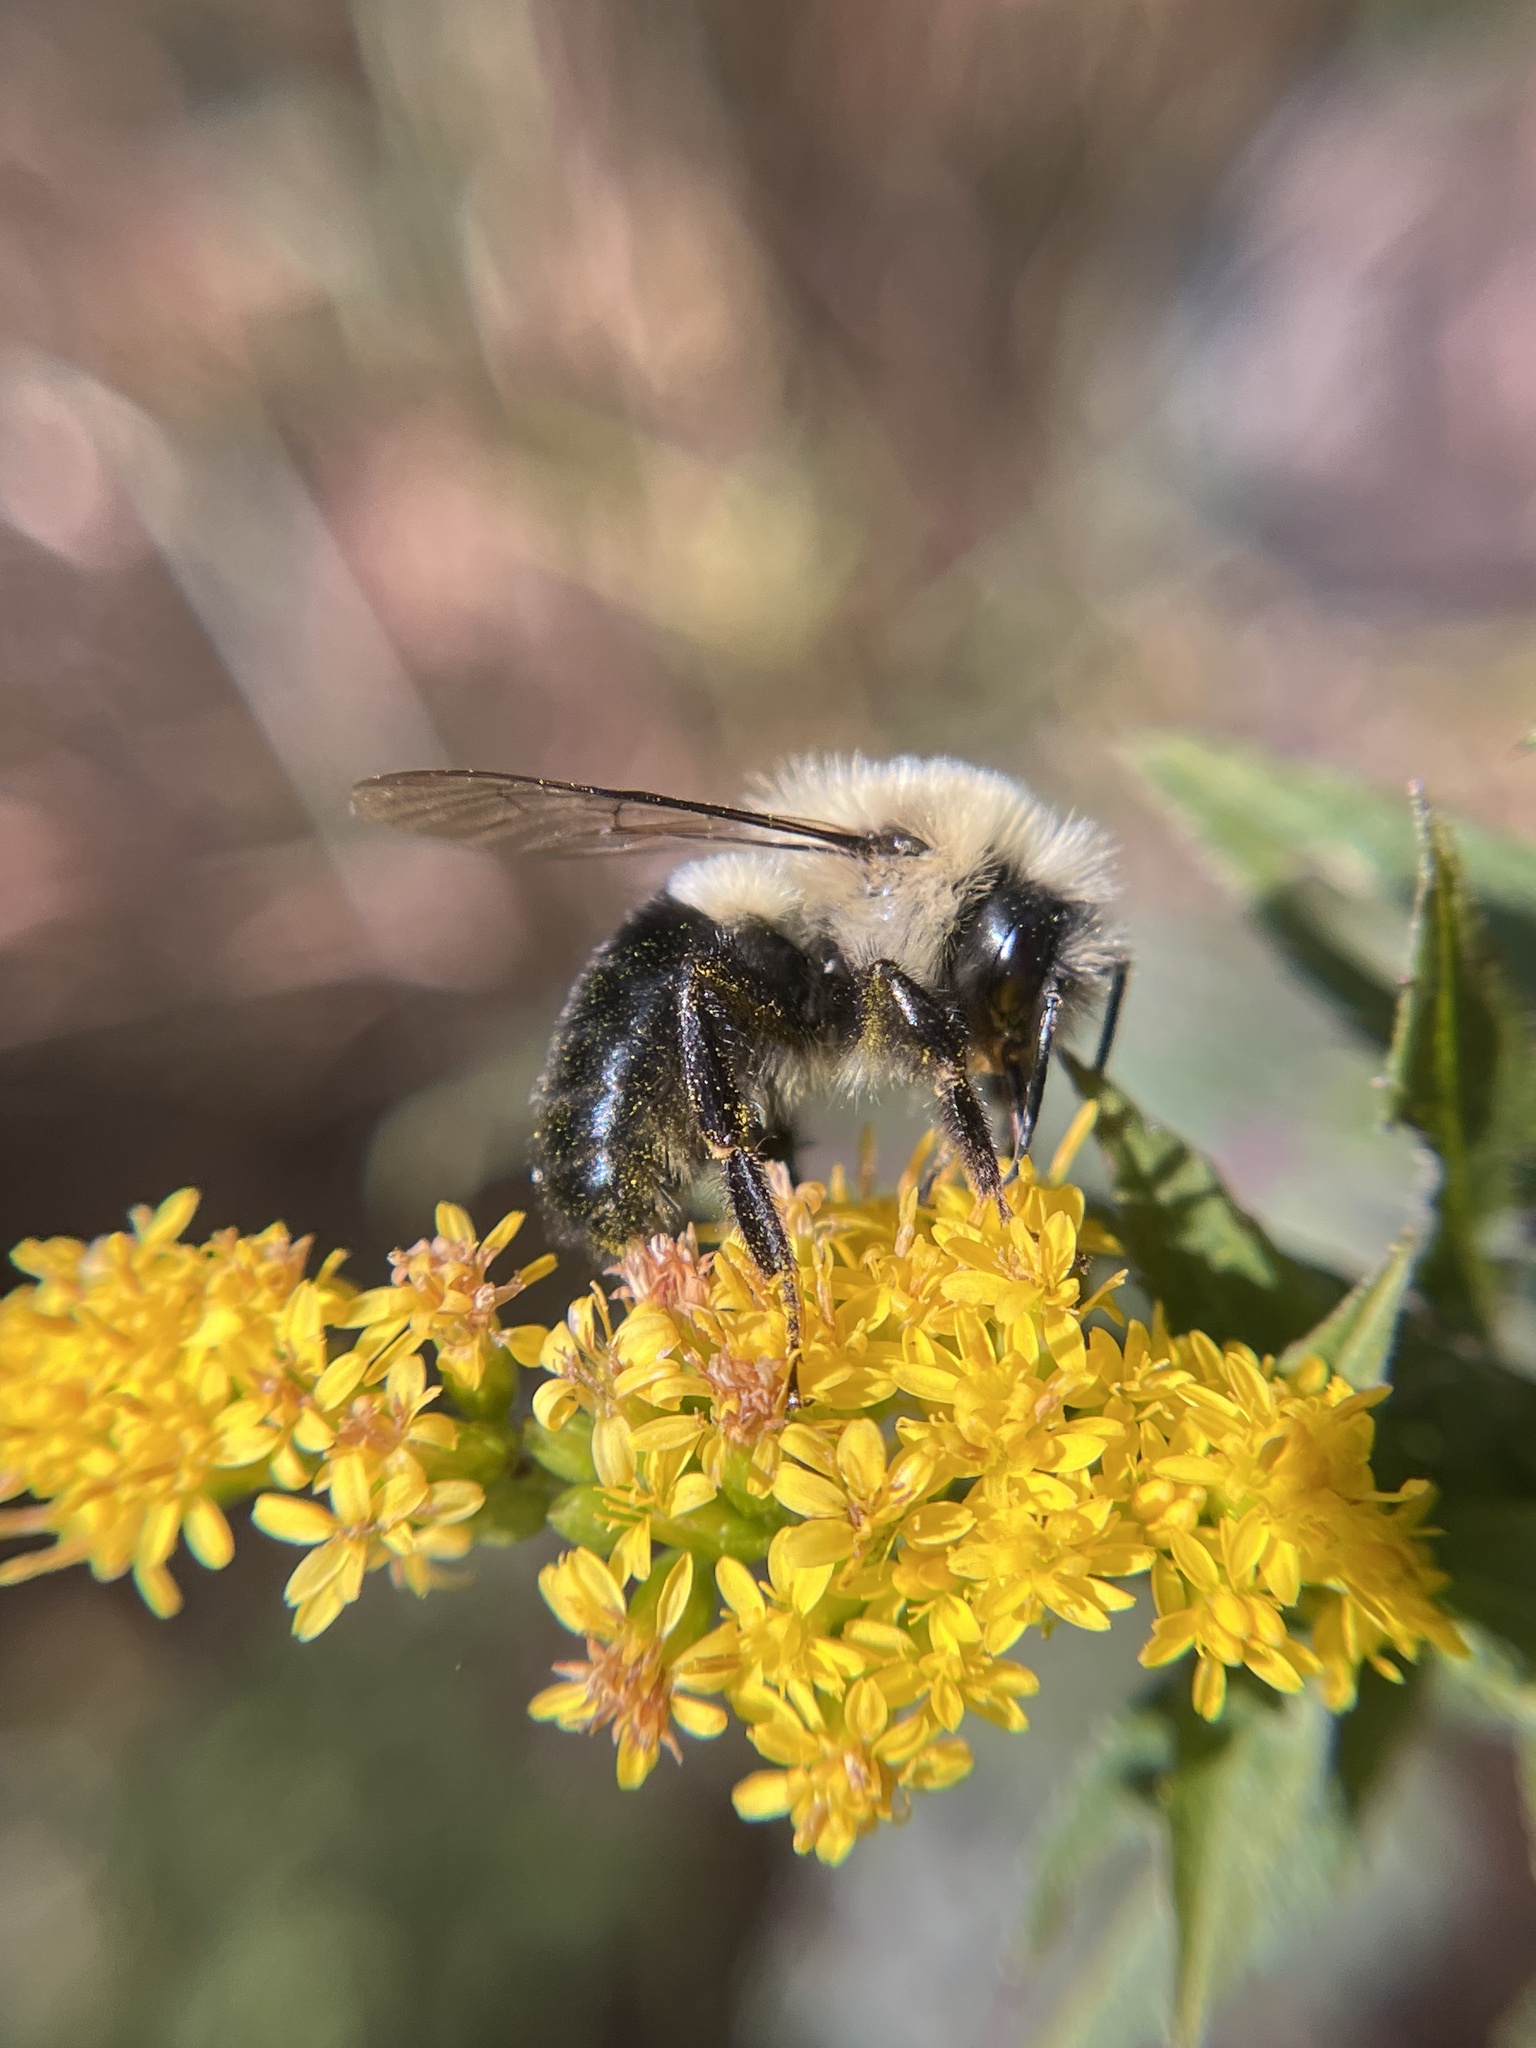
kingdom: Animalia
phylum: Arthropoda
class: Insecta
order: Hymenoptera
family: Apidae
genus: Bombus
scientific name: Bombus impatiens
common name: Common eastern bumble bee
